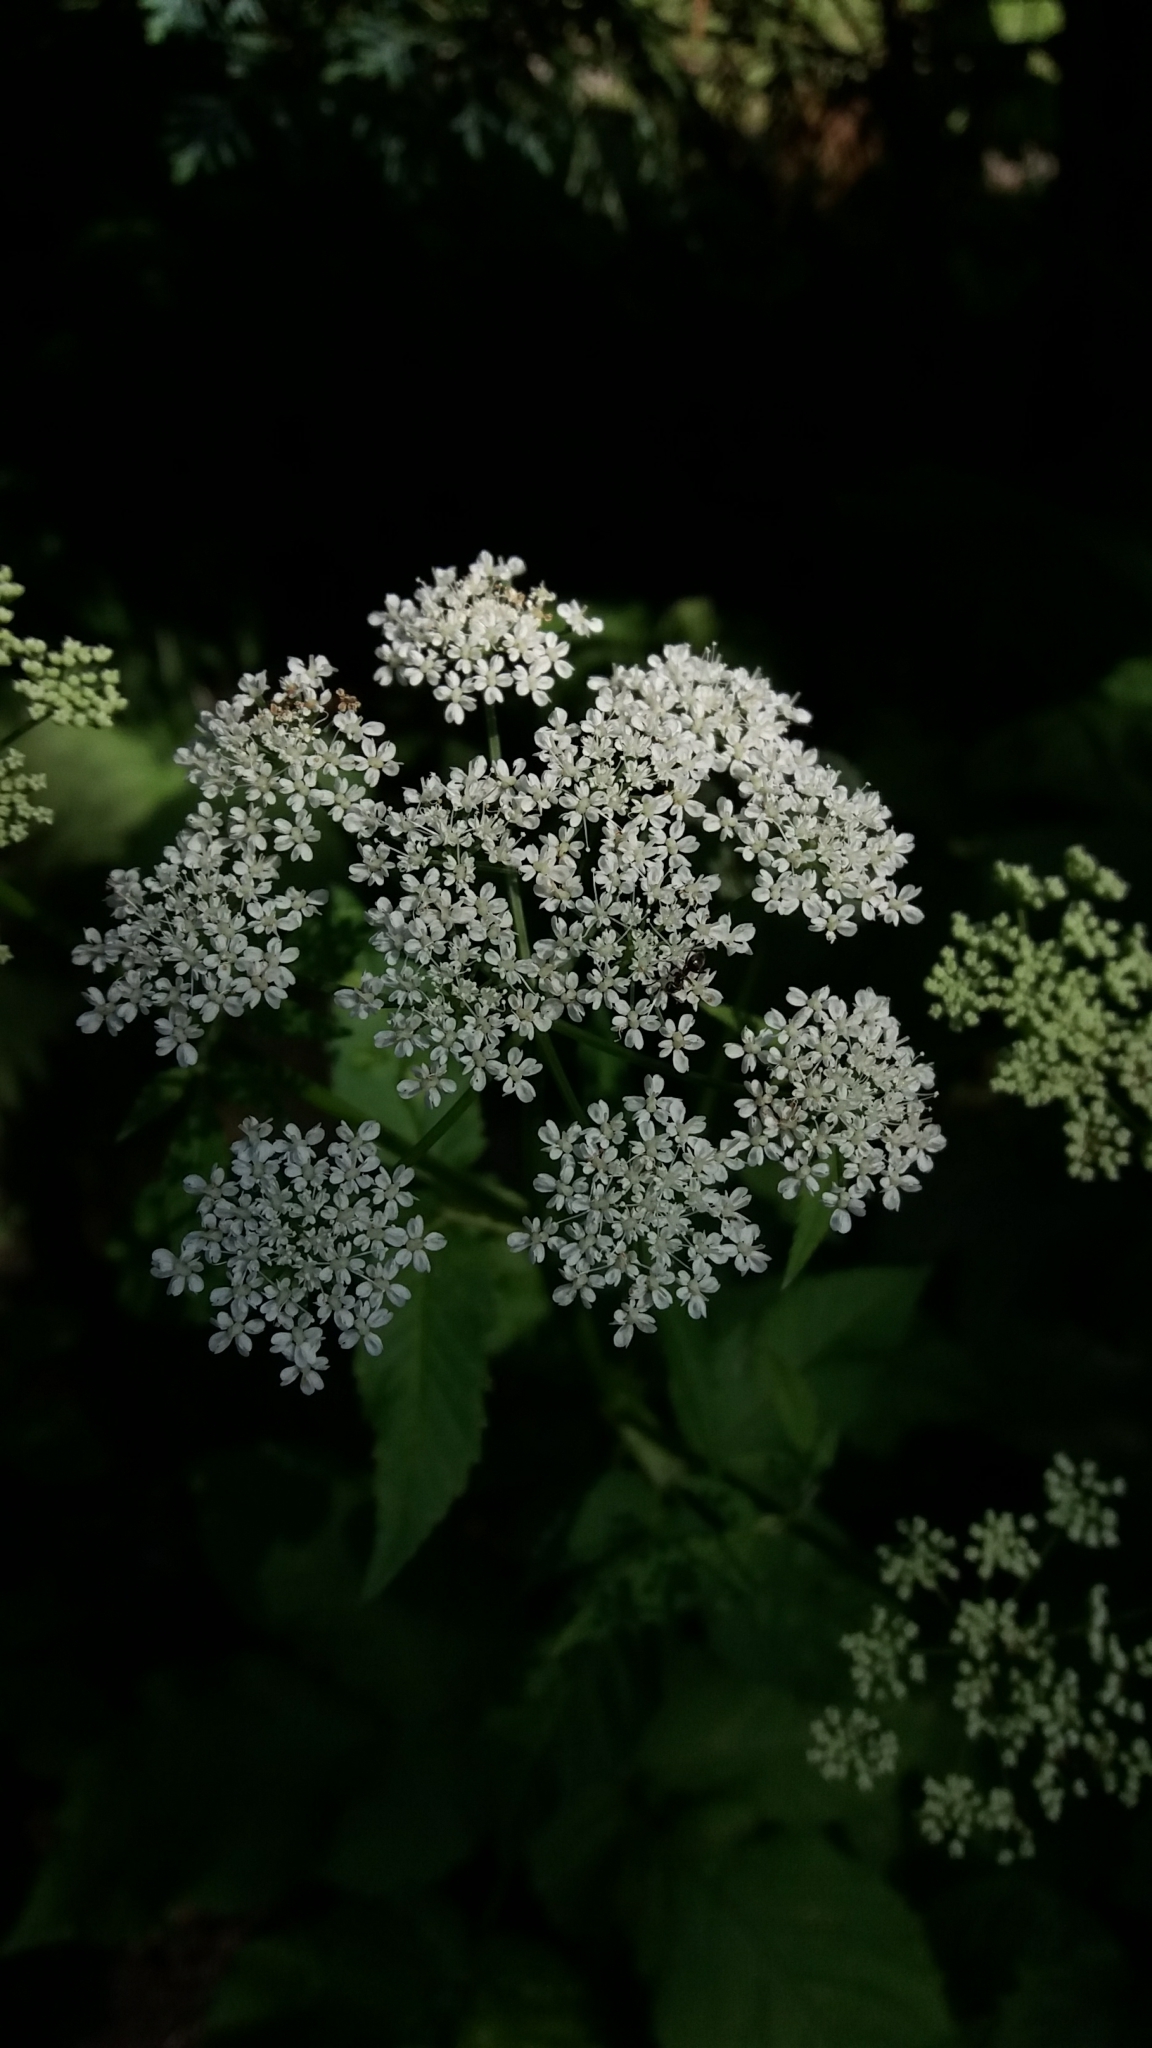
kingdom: Plantae
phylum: Tracheophyta
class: Magnoliopsida
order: Apiales
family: Apiaceae
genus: Aegopodium
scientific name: Aegopodium podagraria
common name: Ground-elder
